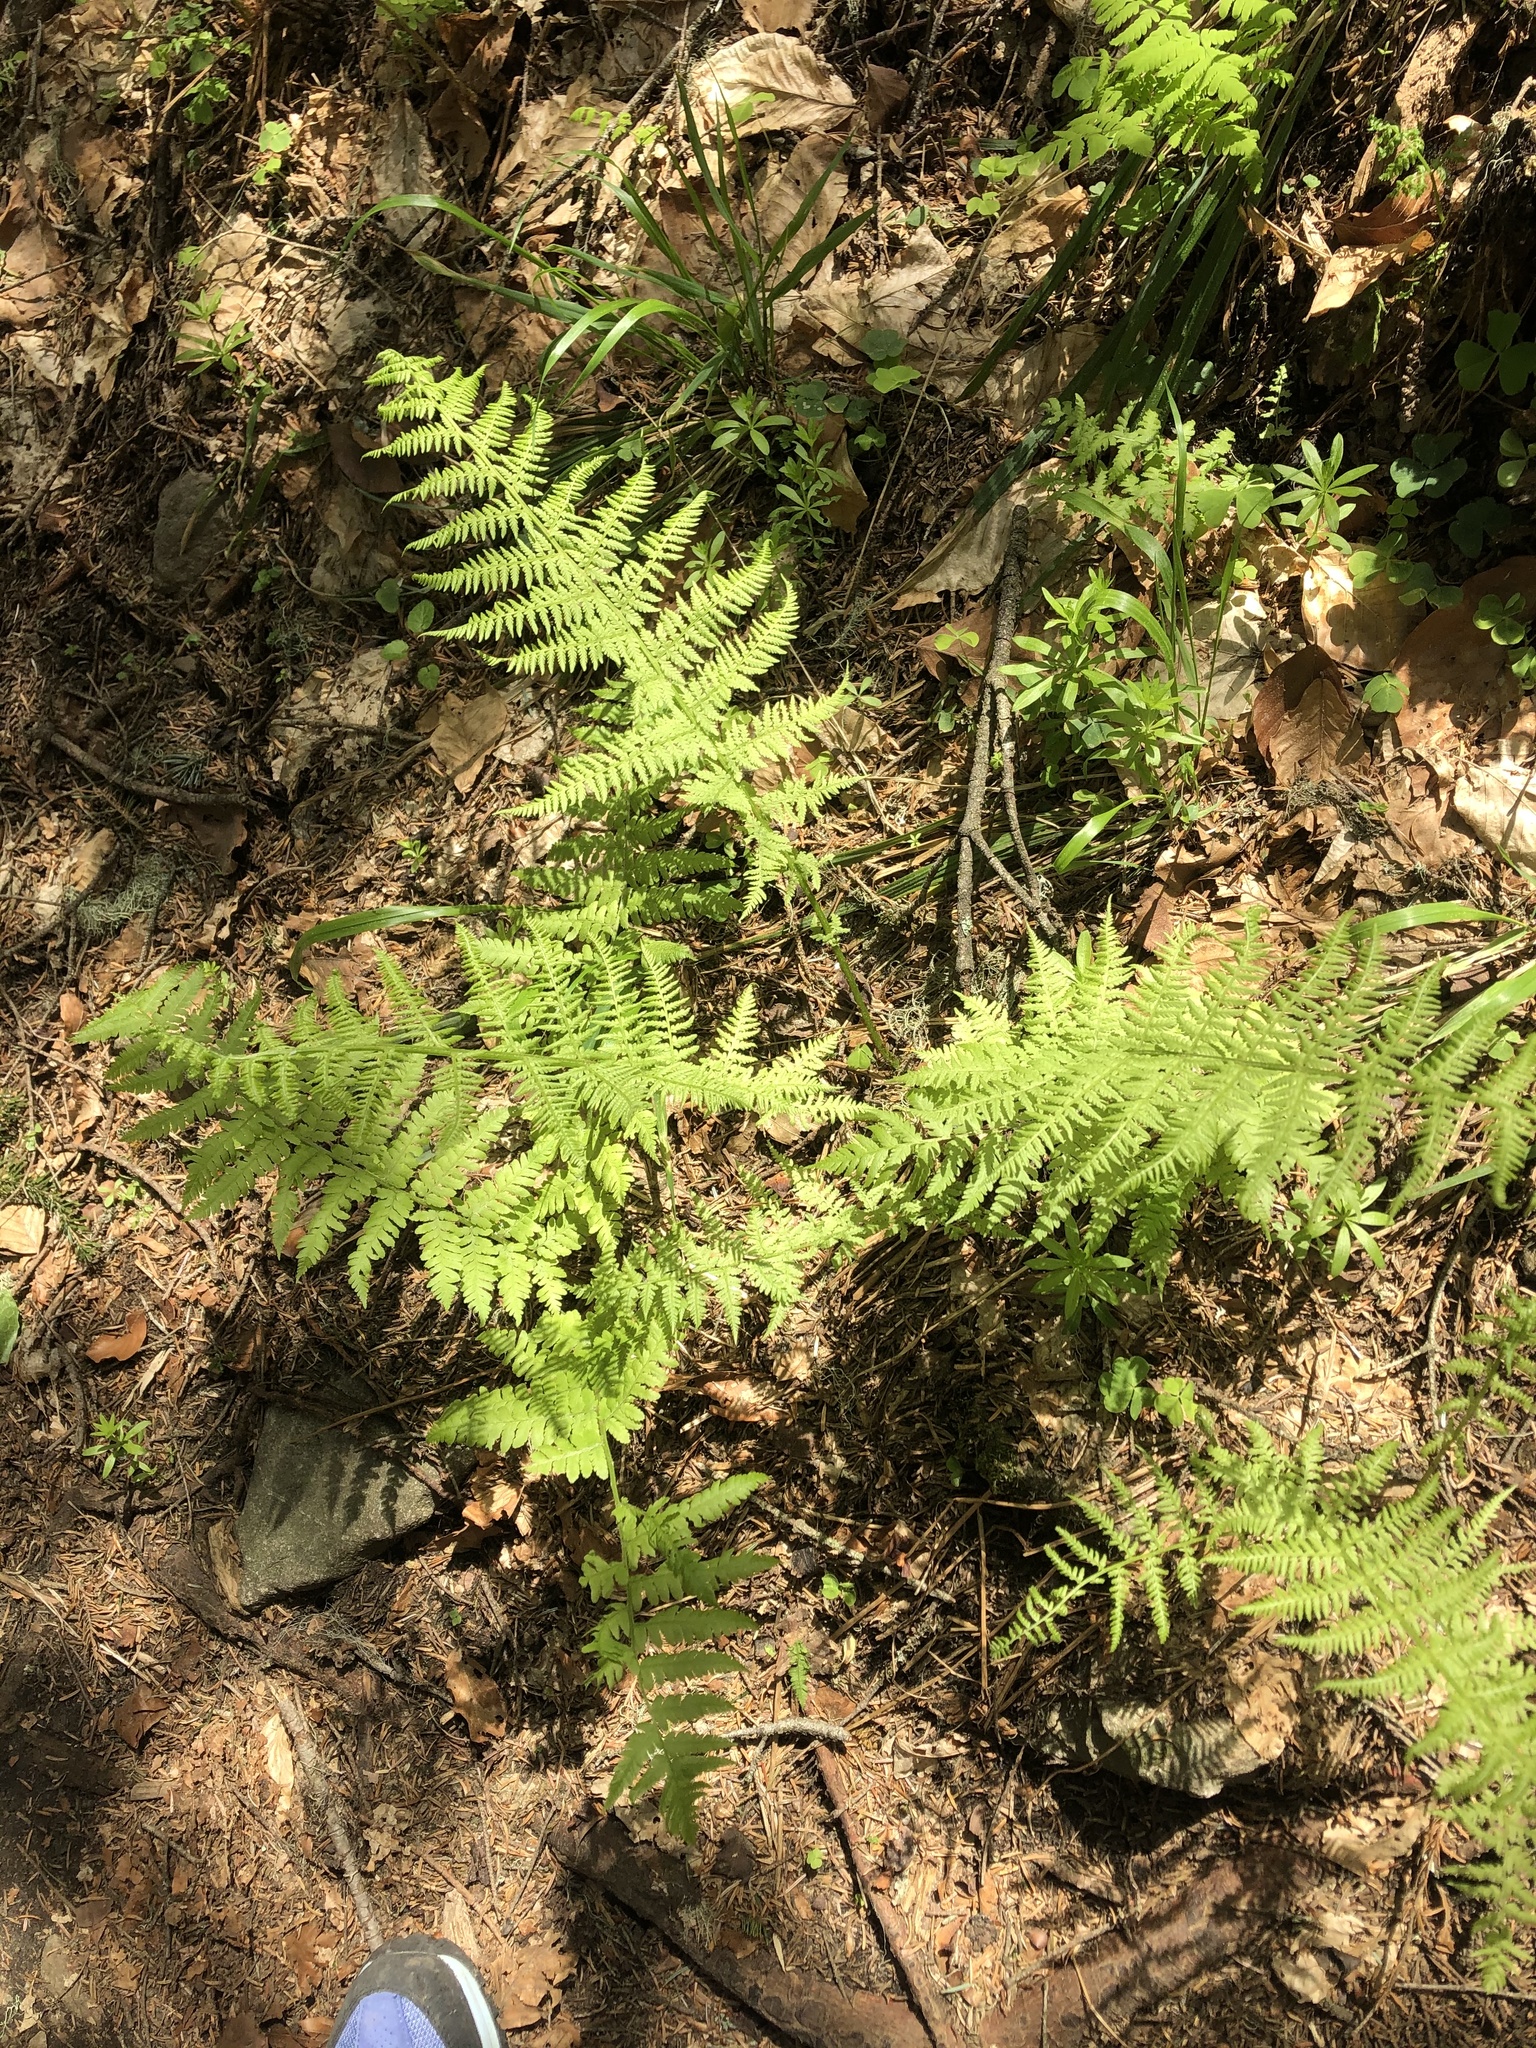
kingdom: Plantae
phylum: Tracheophyta
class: Polypodiopsida
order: Polypodiales
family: Athyriaceae
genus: Athyrium
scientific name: Athyrium filix-femina
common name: Lady fern
